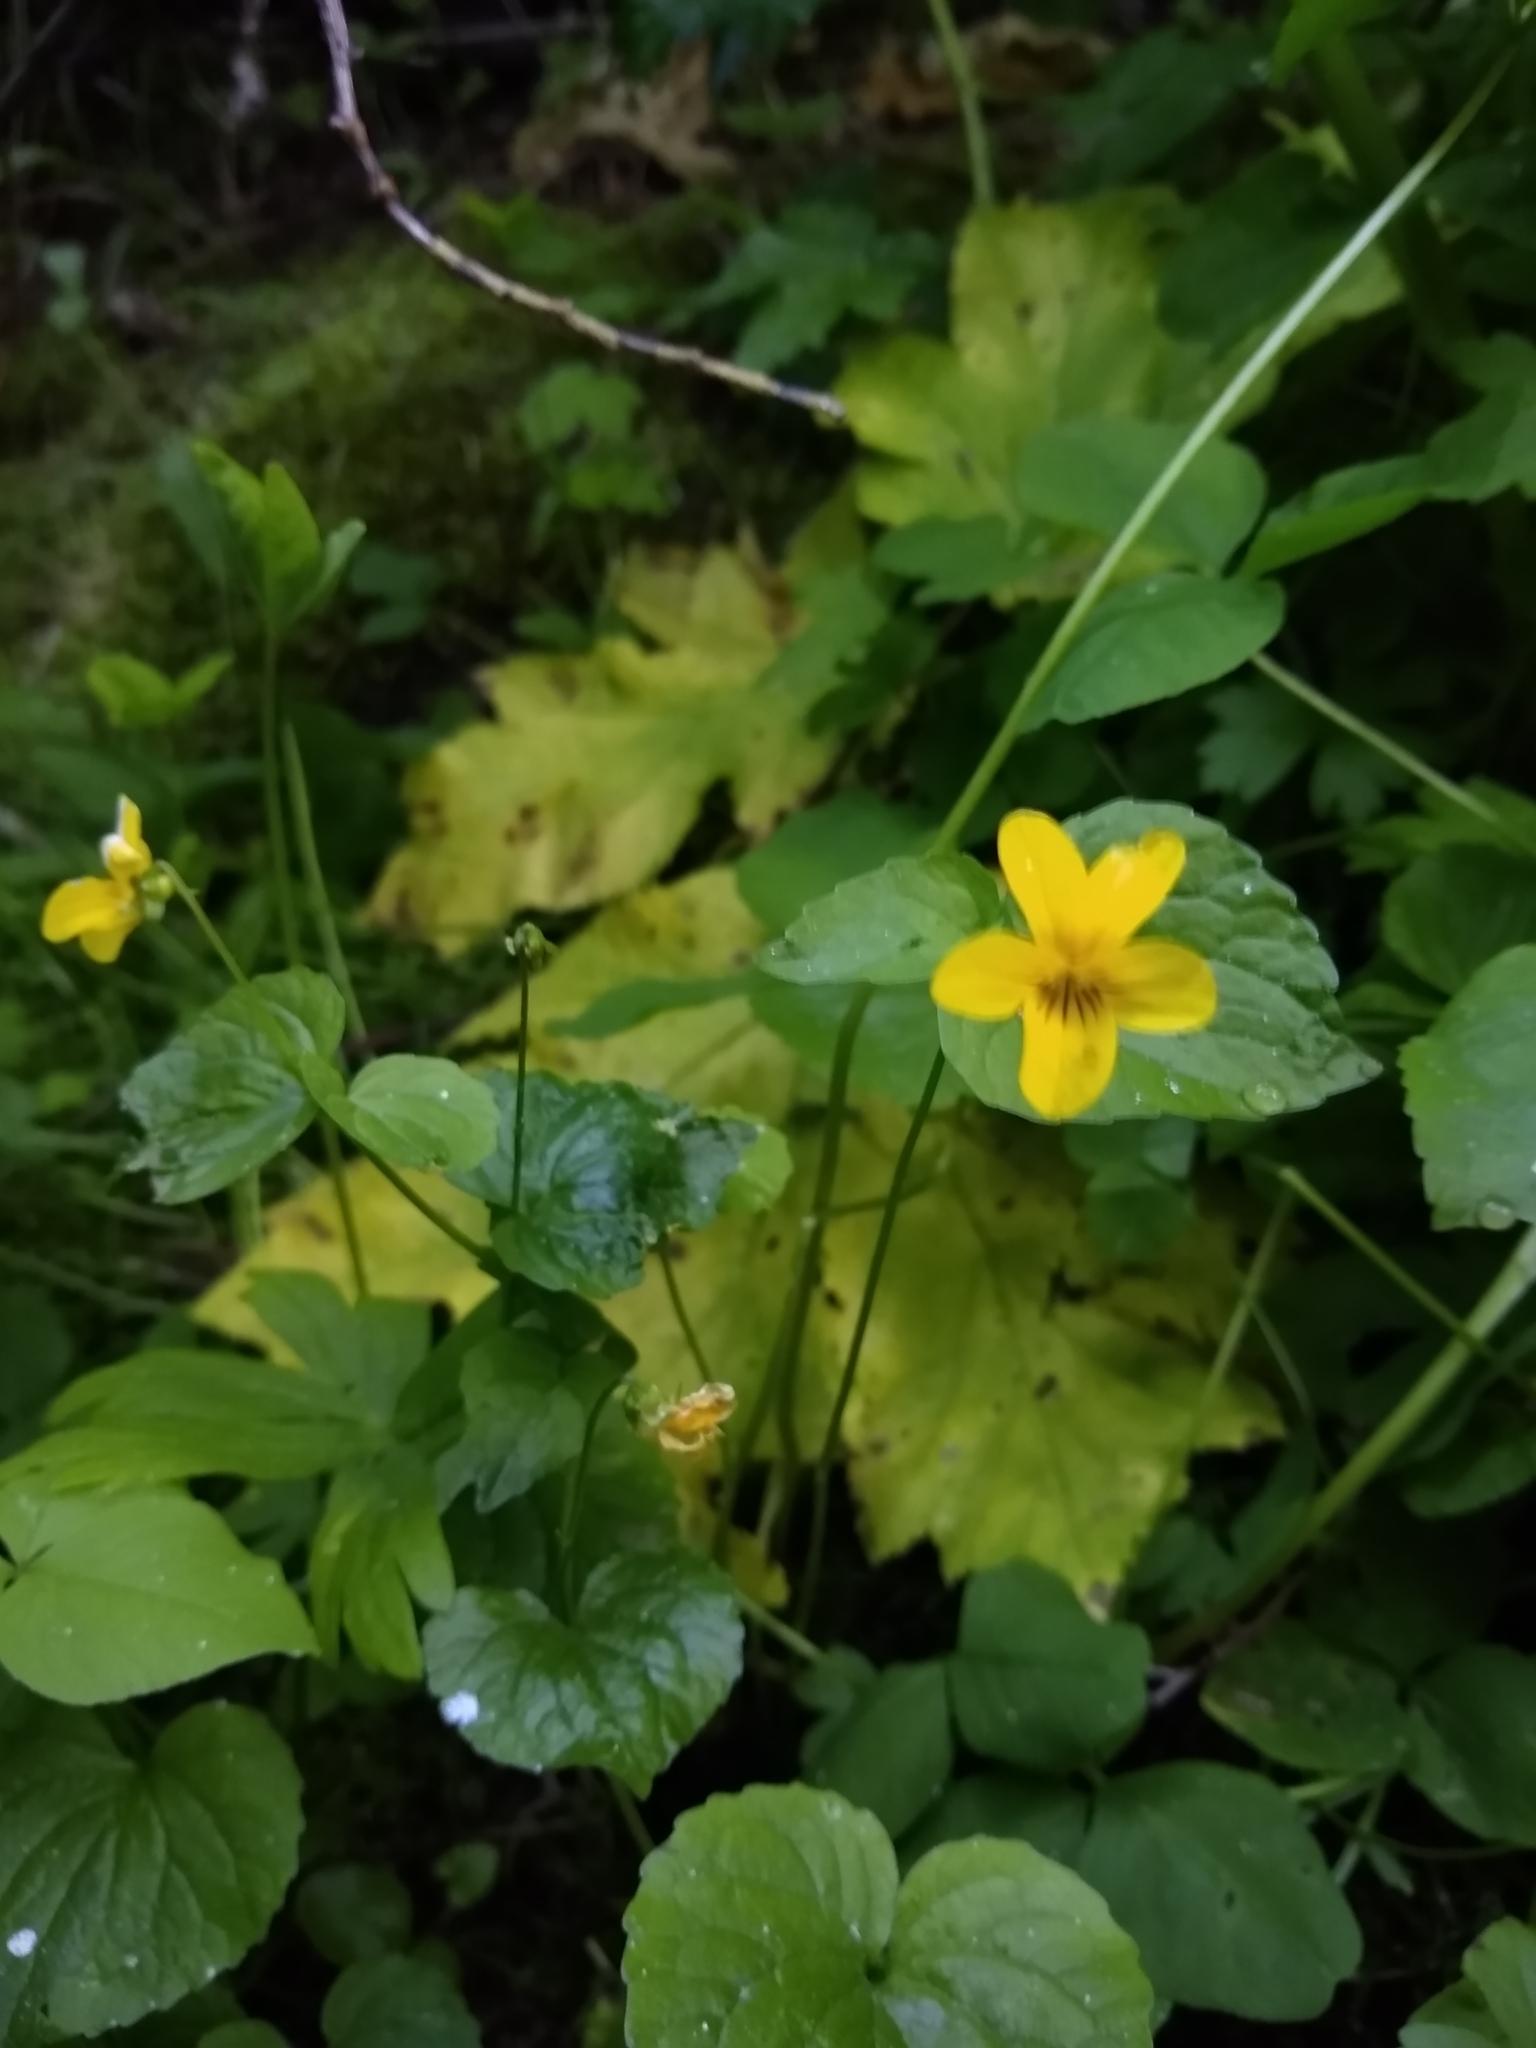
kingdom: Plantae
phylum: Tracheophyta
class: Magnoliopsida
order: Malpighiales
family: Violaceae
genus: Viola
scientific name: Viola glabella
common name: Stream violet
